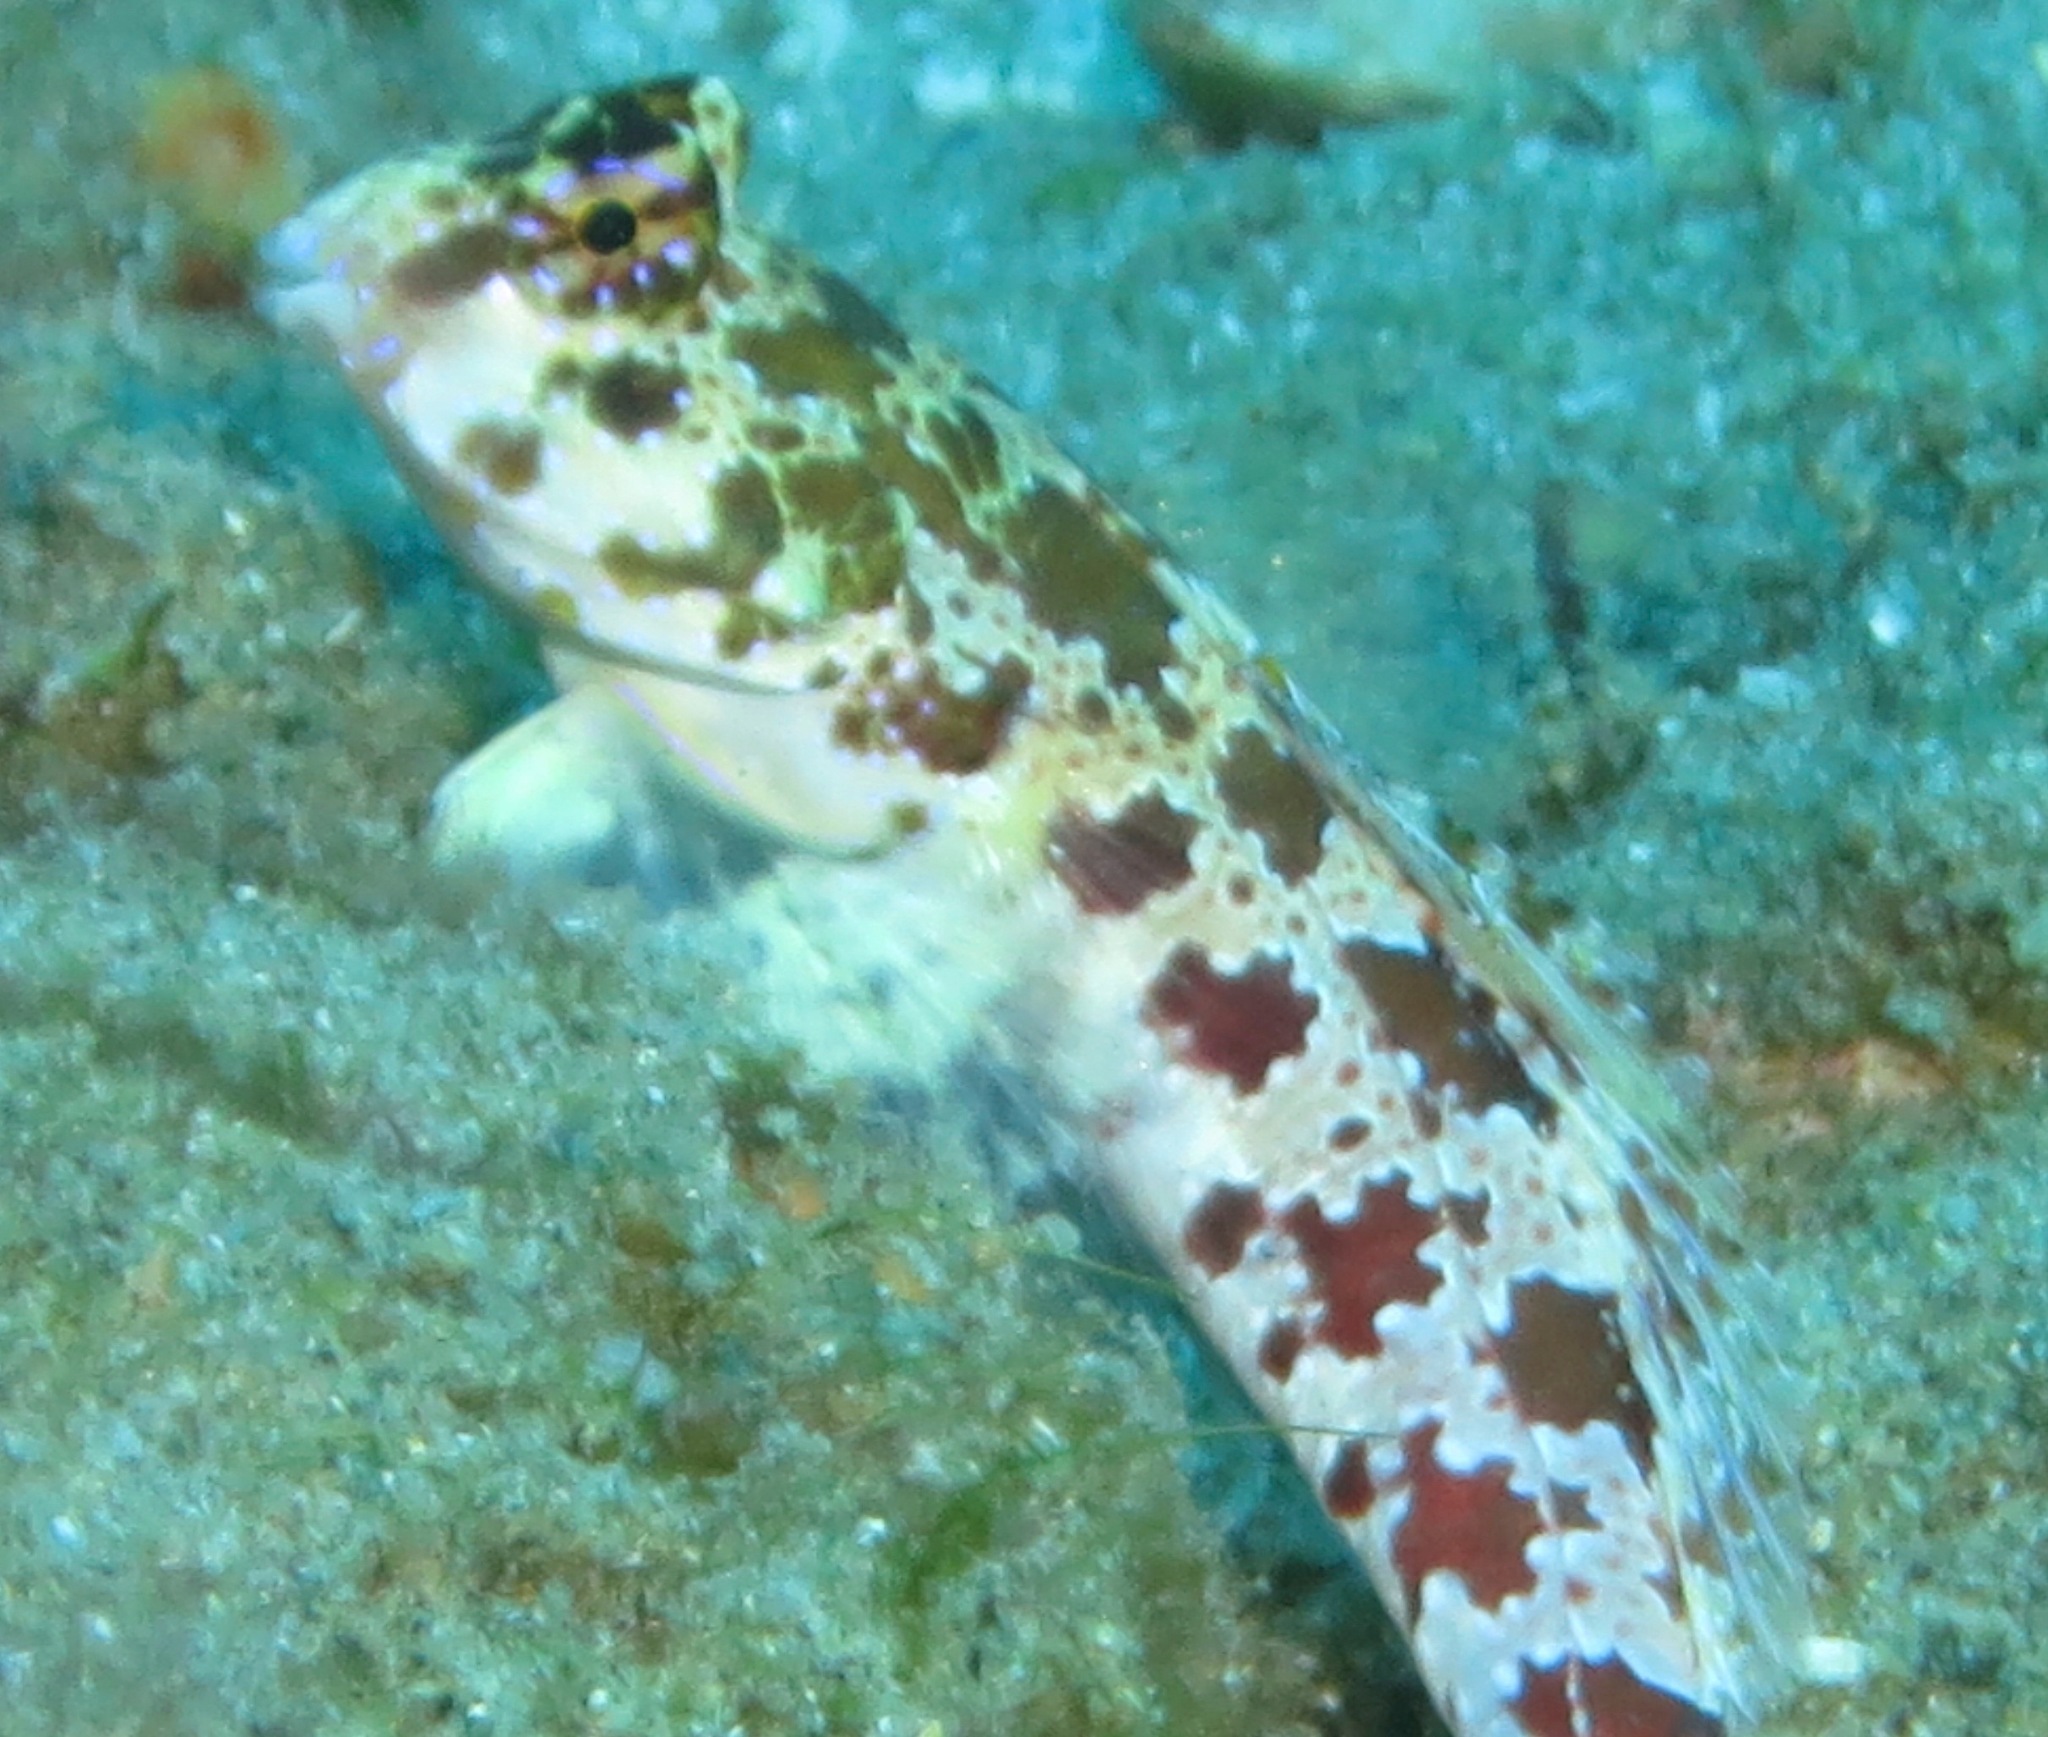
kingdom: Animalia
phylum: Chordata
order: Perciformes
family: Callionymidae
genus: Synchiropus
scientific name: Synchiropus stellatus
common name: Starry dragonet
